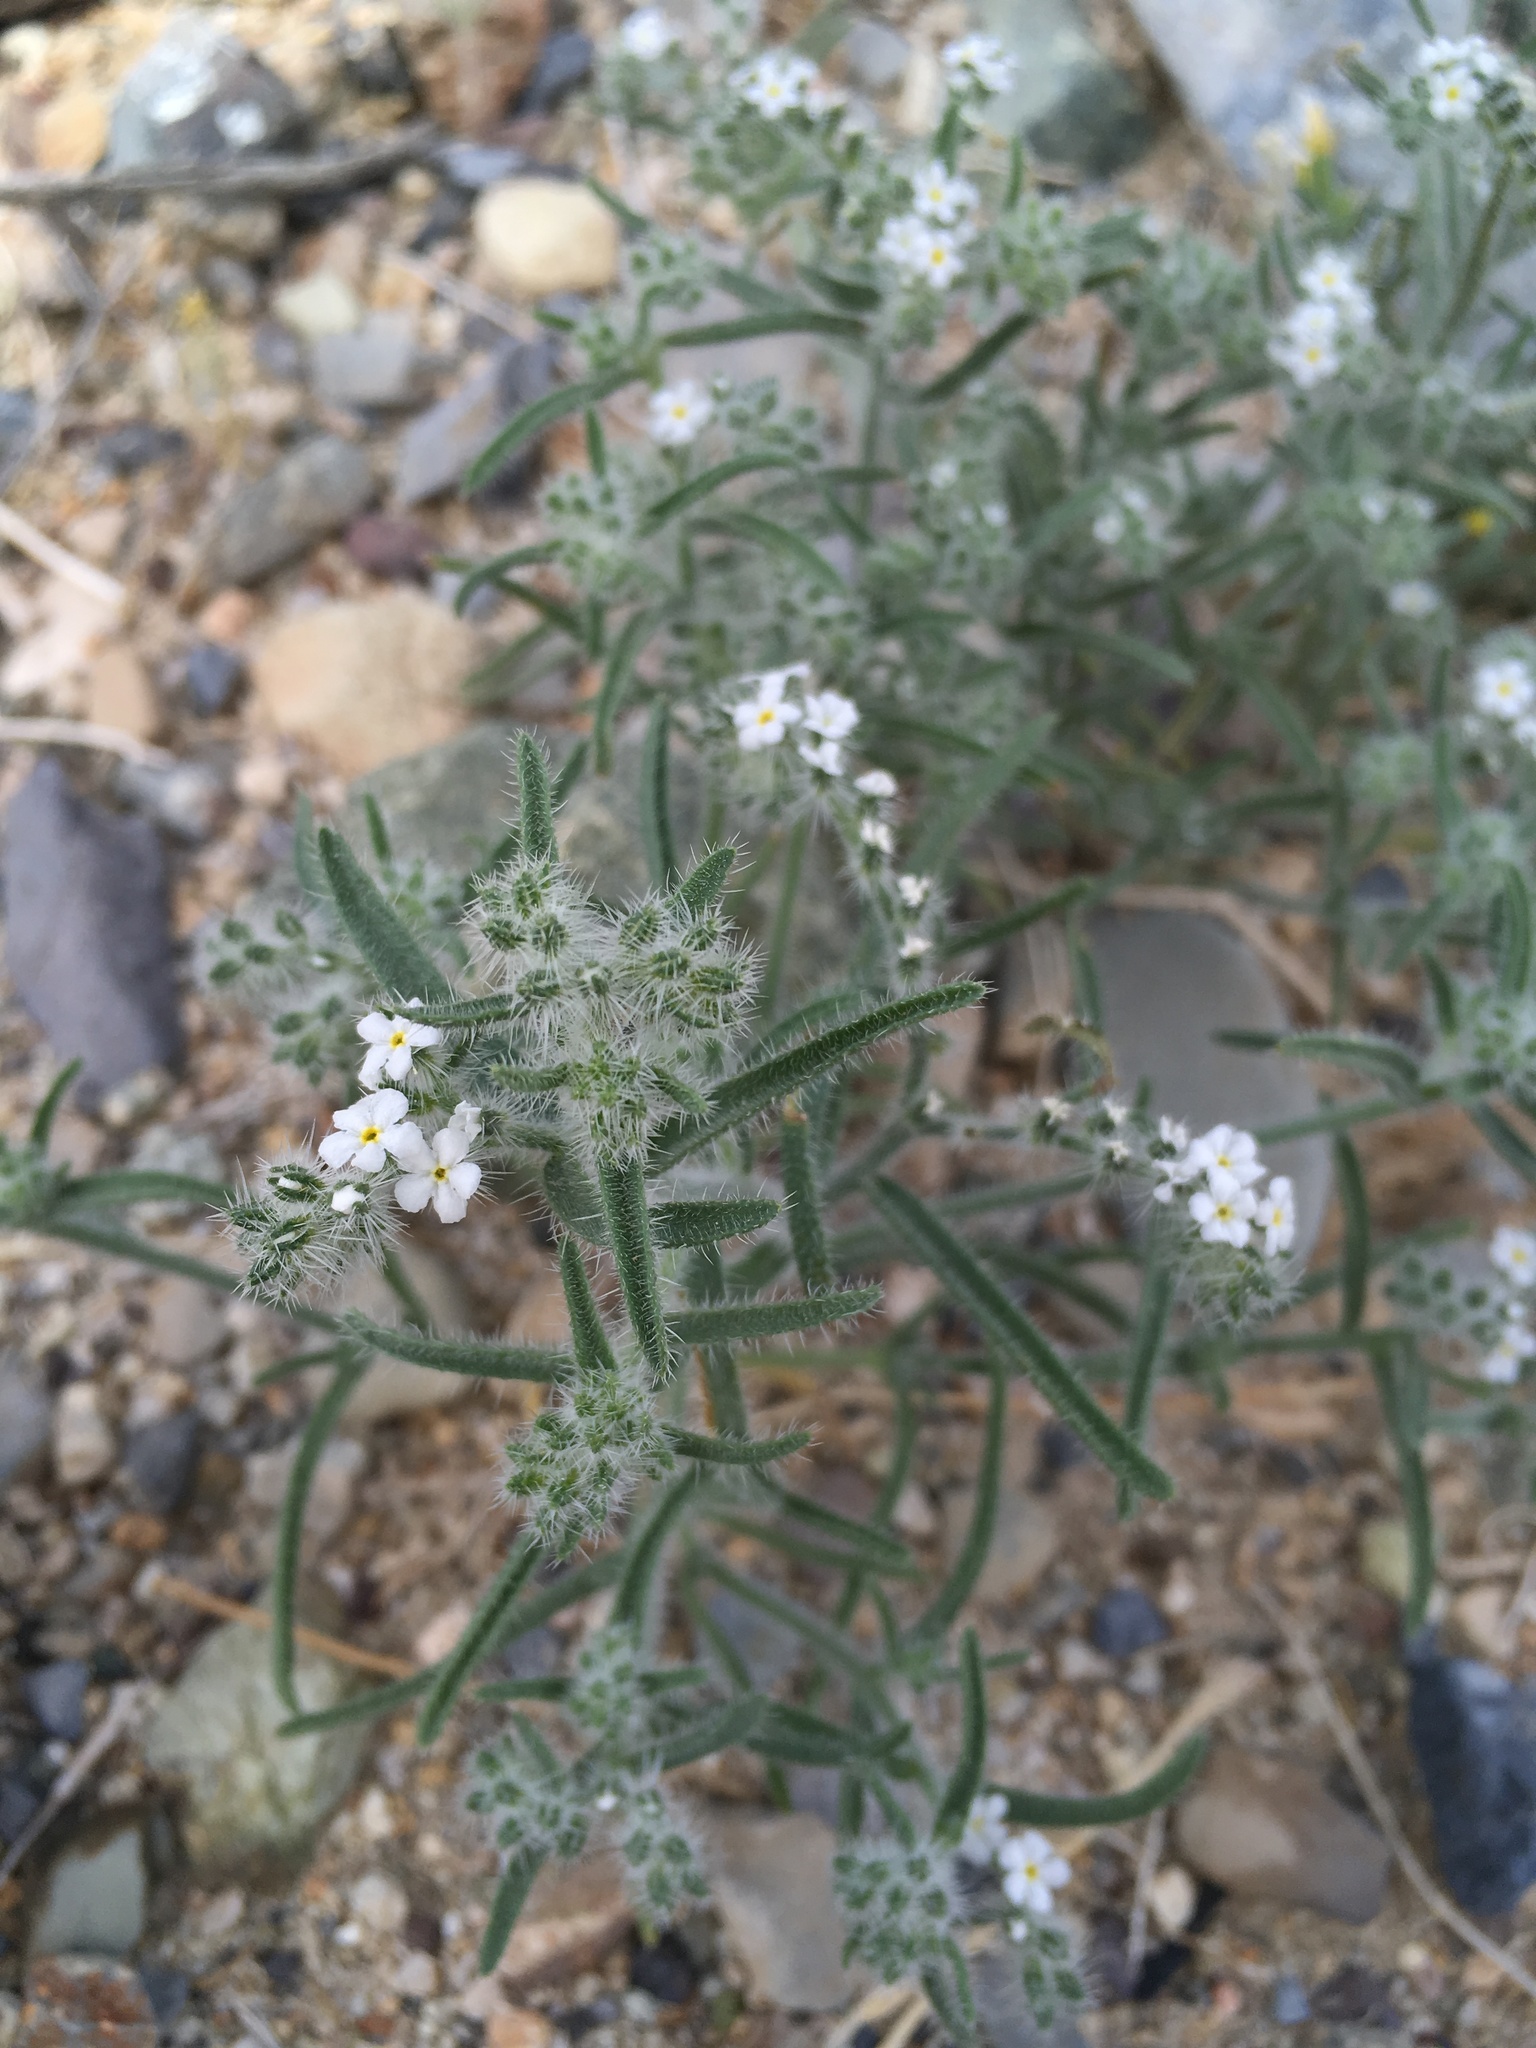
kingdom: Plantae
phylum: Tracheophyta
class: Magnoliopsida
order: Boraginales
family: Boraginaceae
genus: Johnstonella
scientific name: Johnstonella angustifolia
